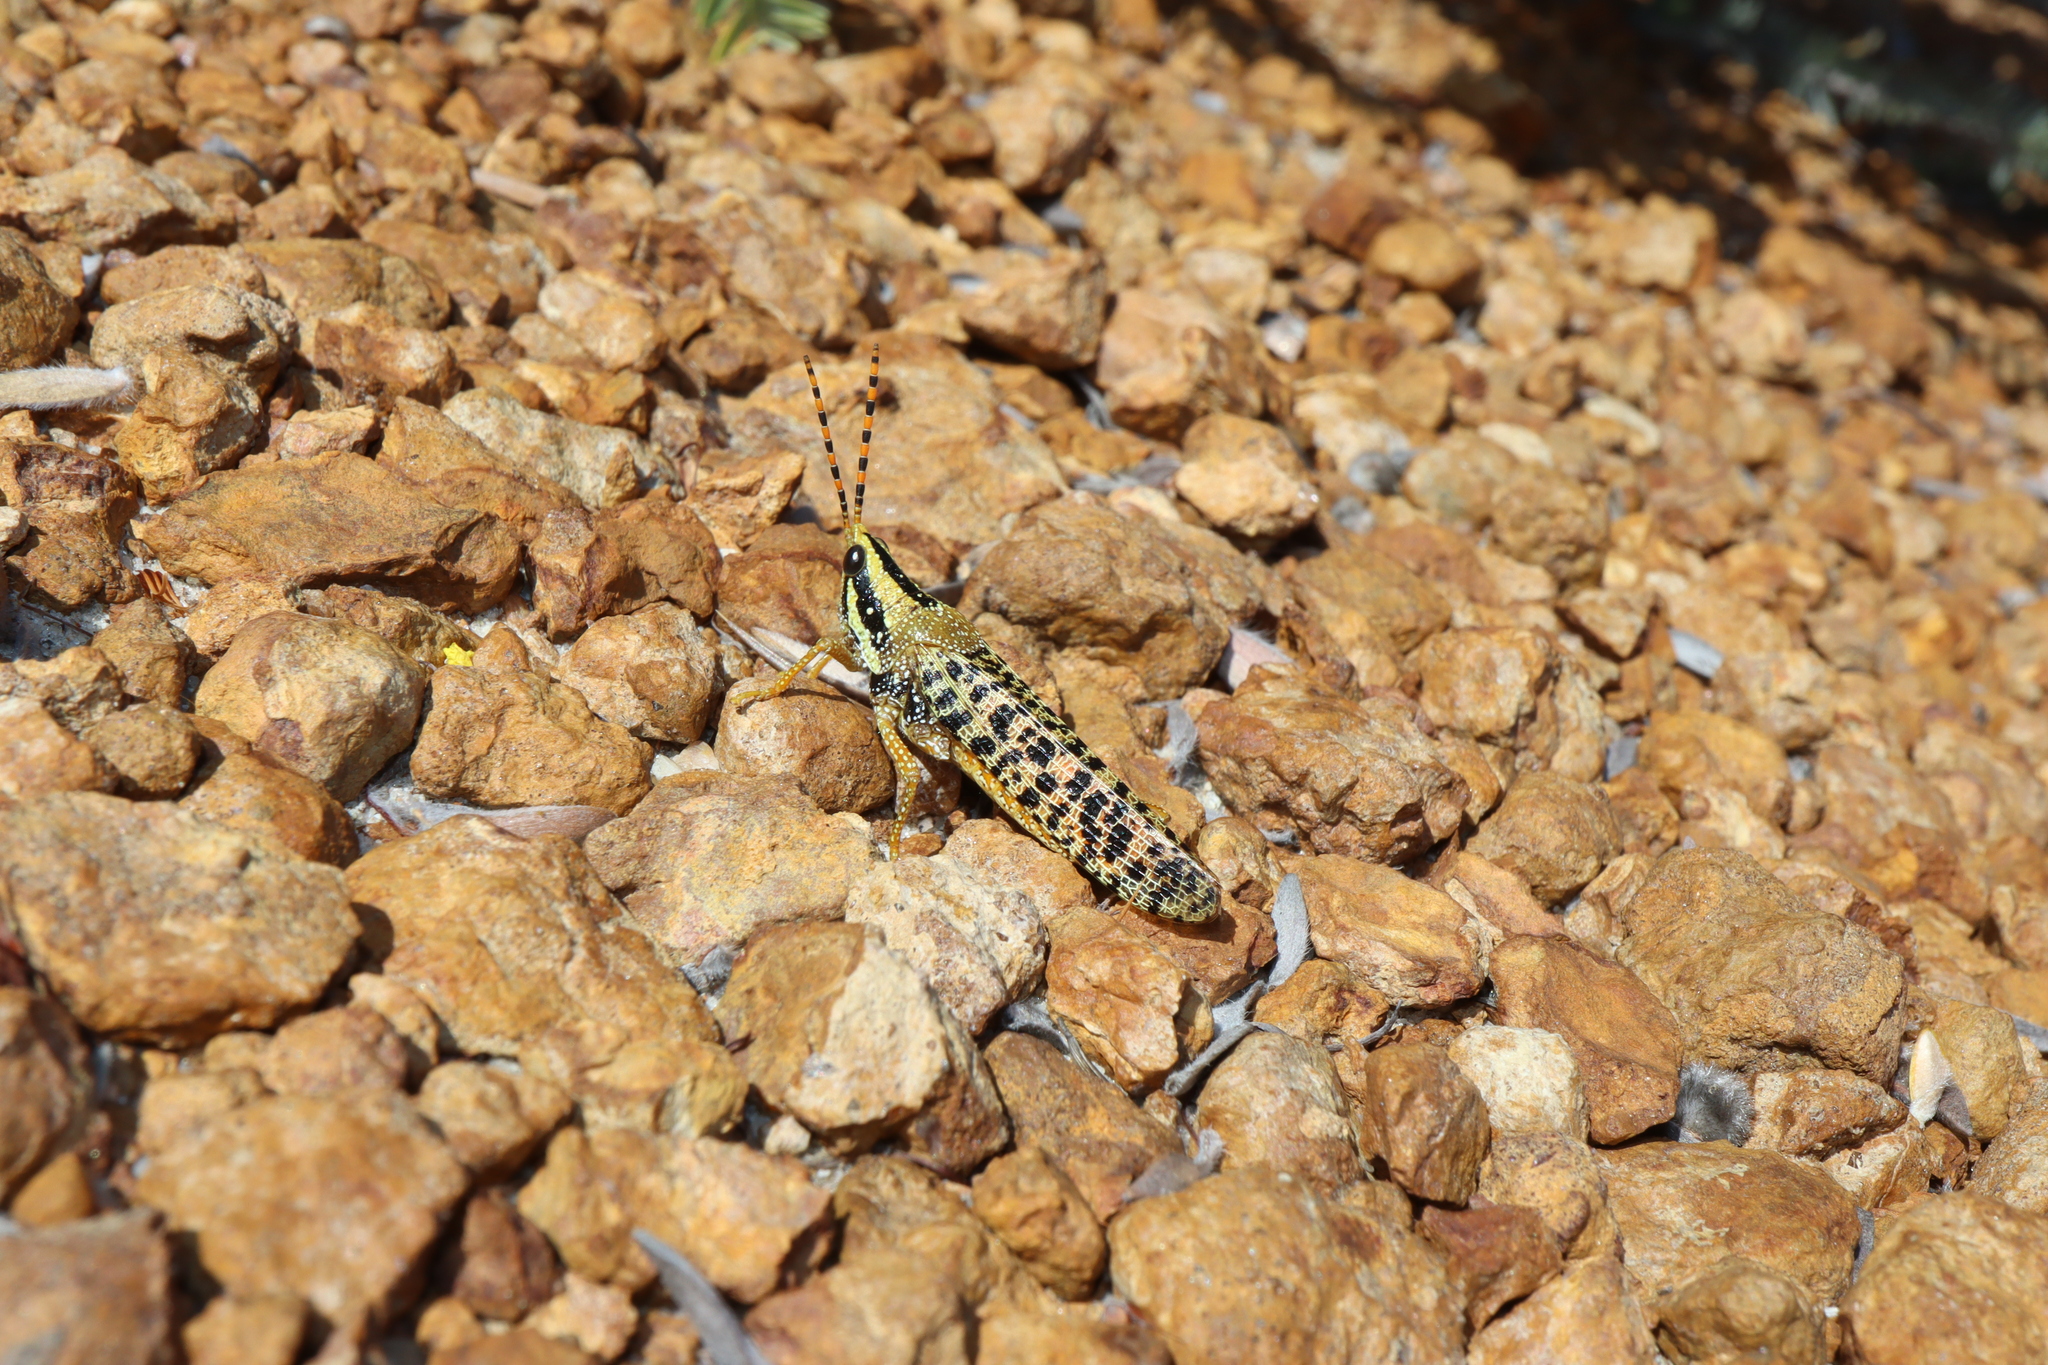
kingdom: Animalia
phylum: Arthropoda
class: Insecta
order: Orthoptera
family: Pyrgomorphidae
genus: Scutillya
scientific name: Scutillya verrucosa
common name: Giant spotted pyrgomorph
